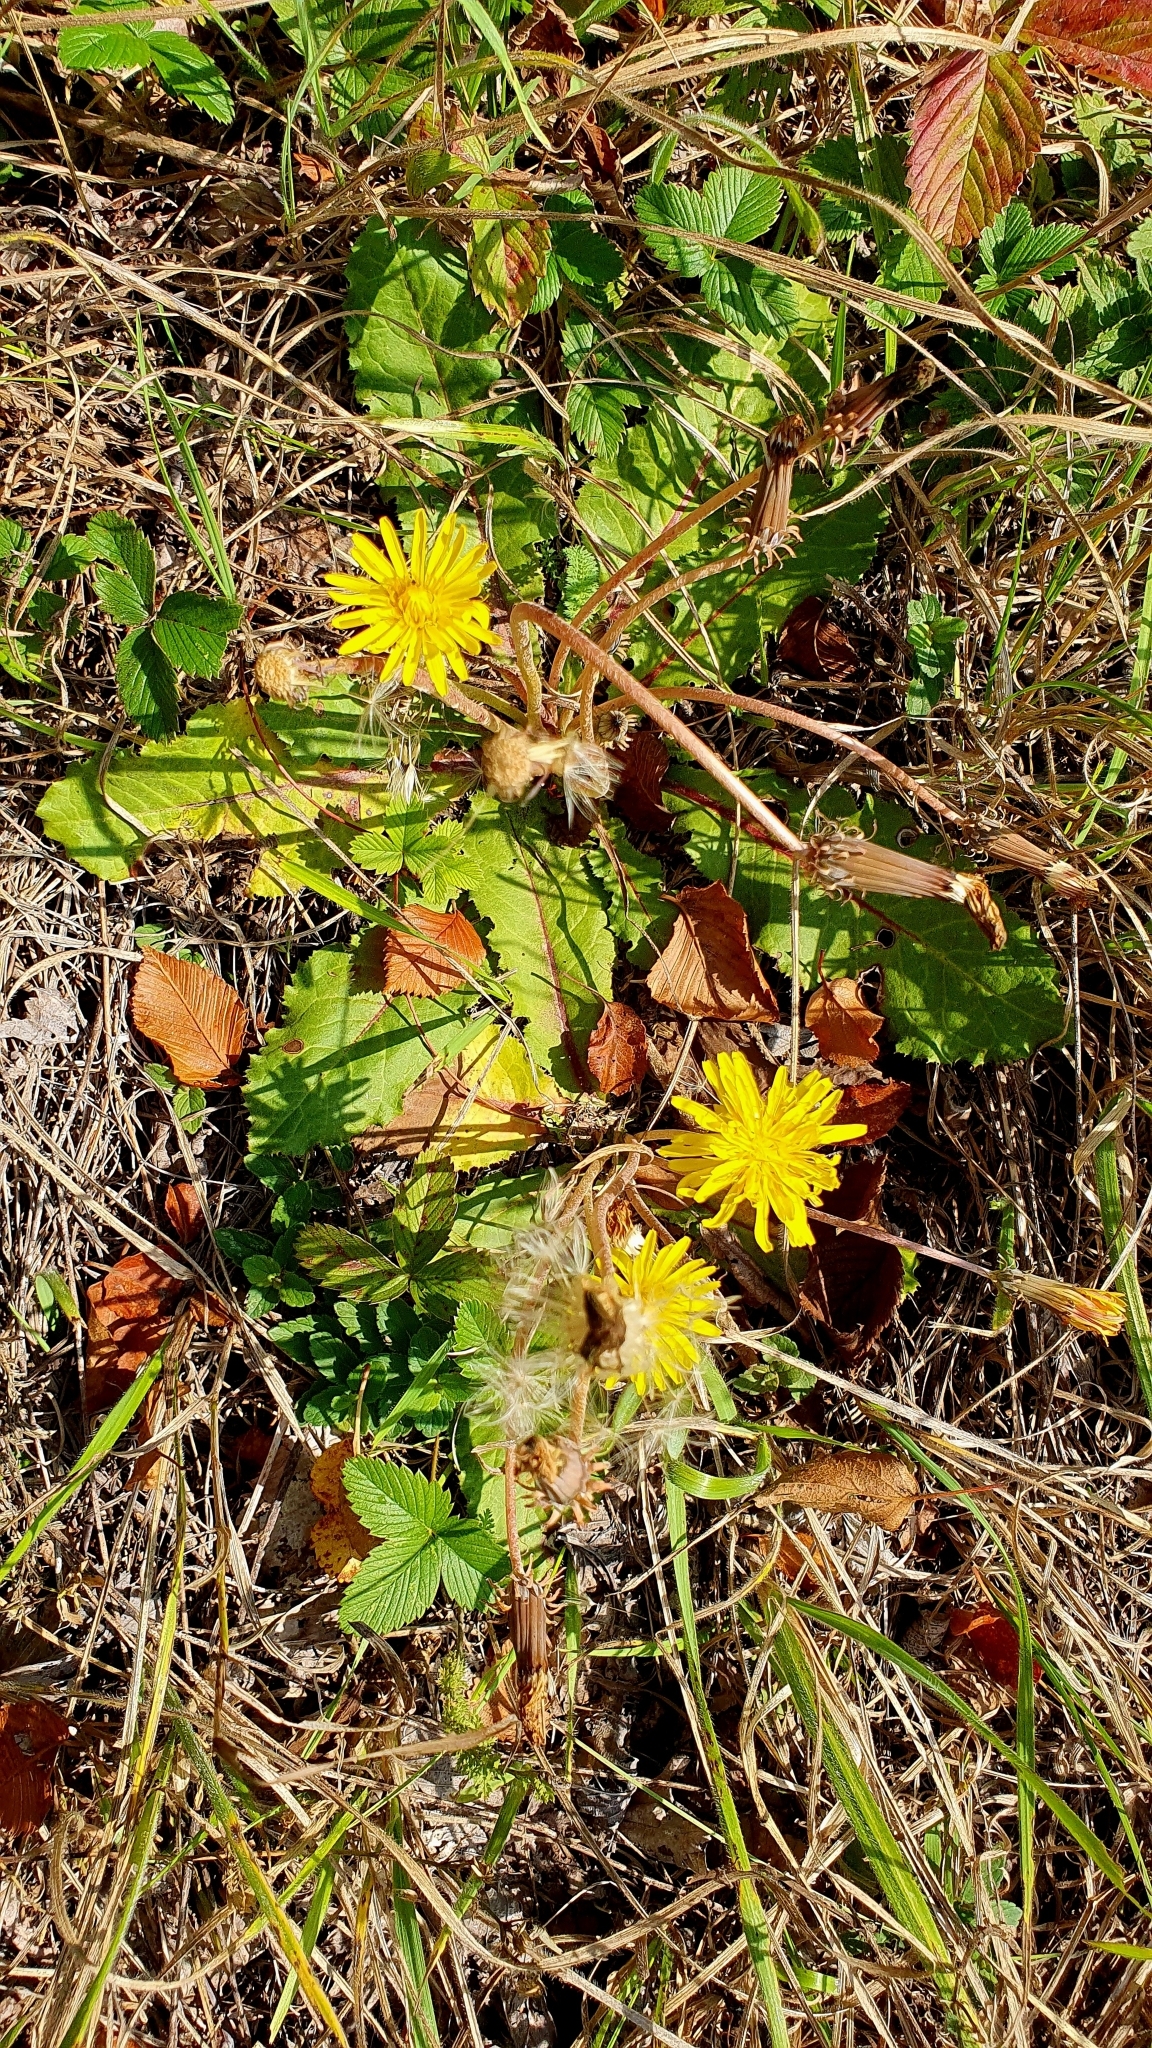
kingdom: Plantae
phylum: Tracheophyta
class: Magnoliopsida
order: Asterales
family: Asteraceae
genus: Taraxacum
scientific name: Taraxacum serotinum
